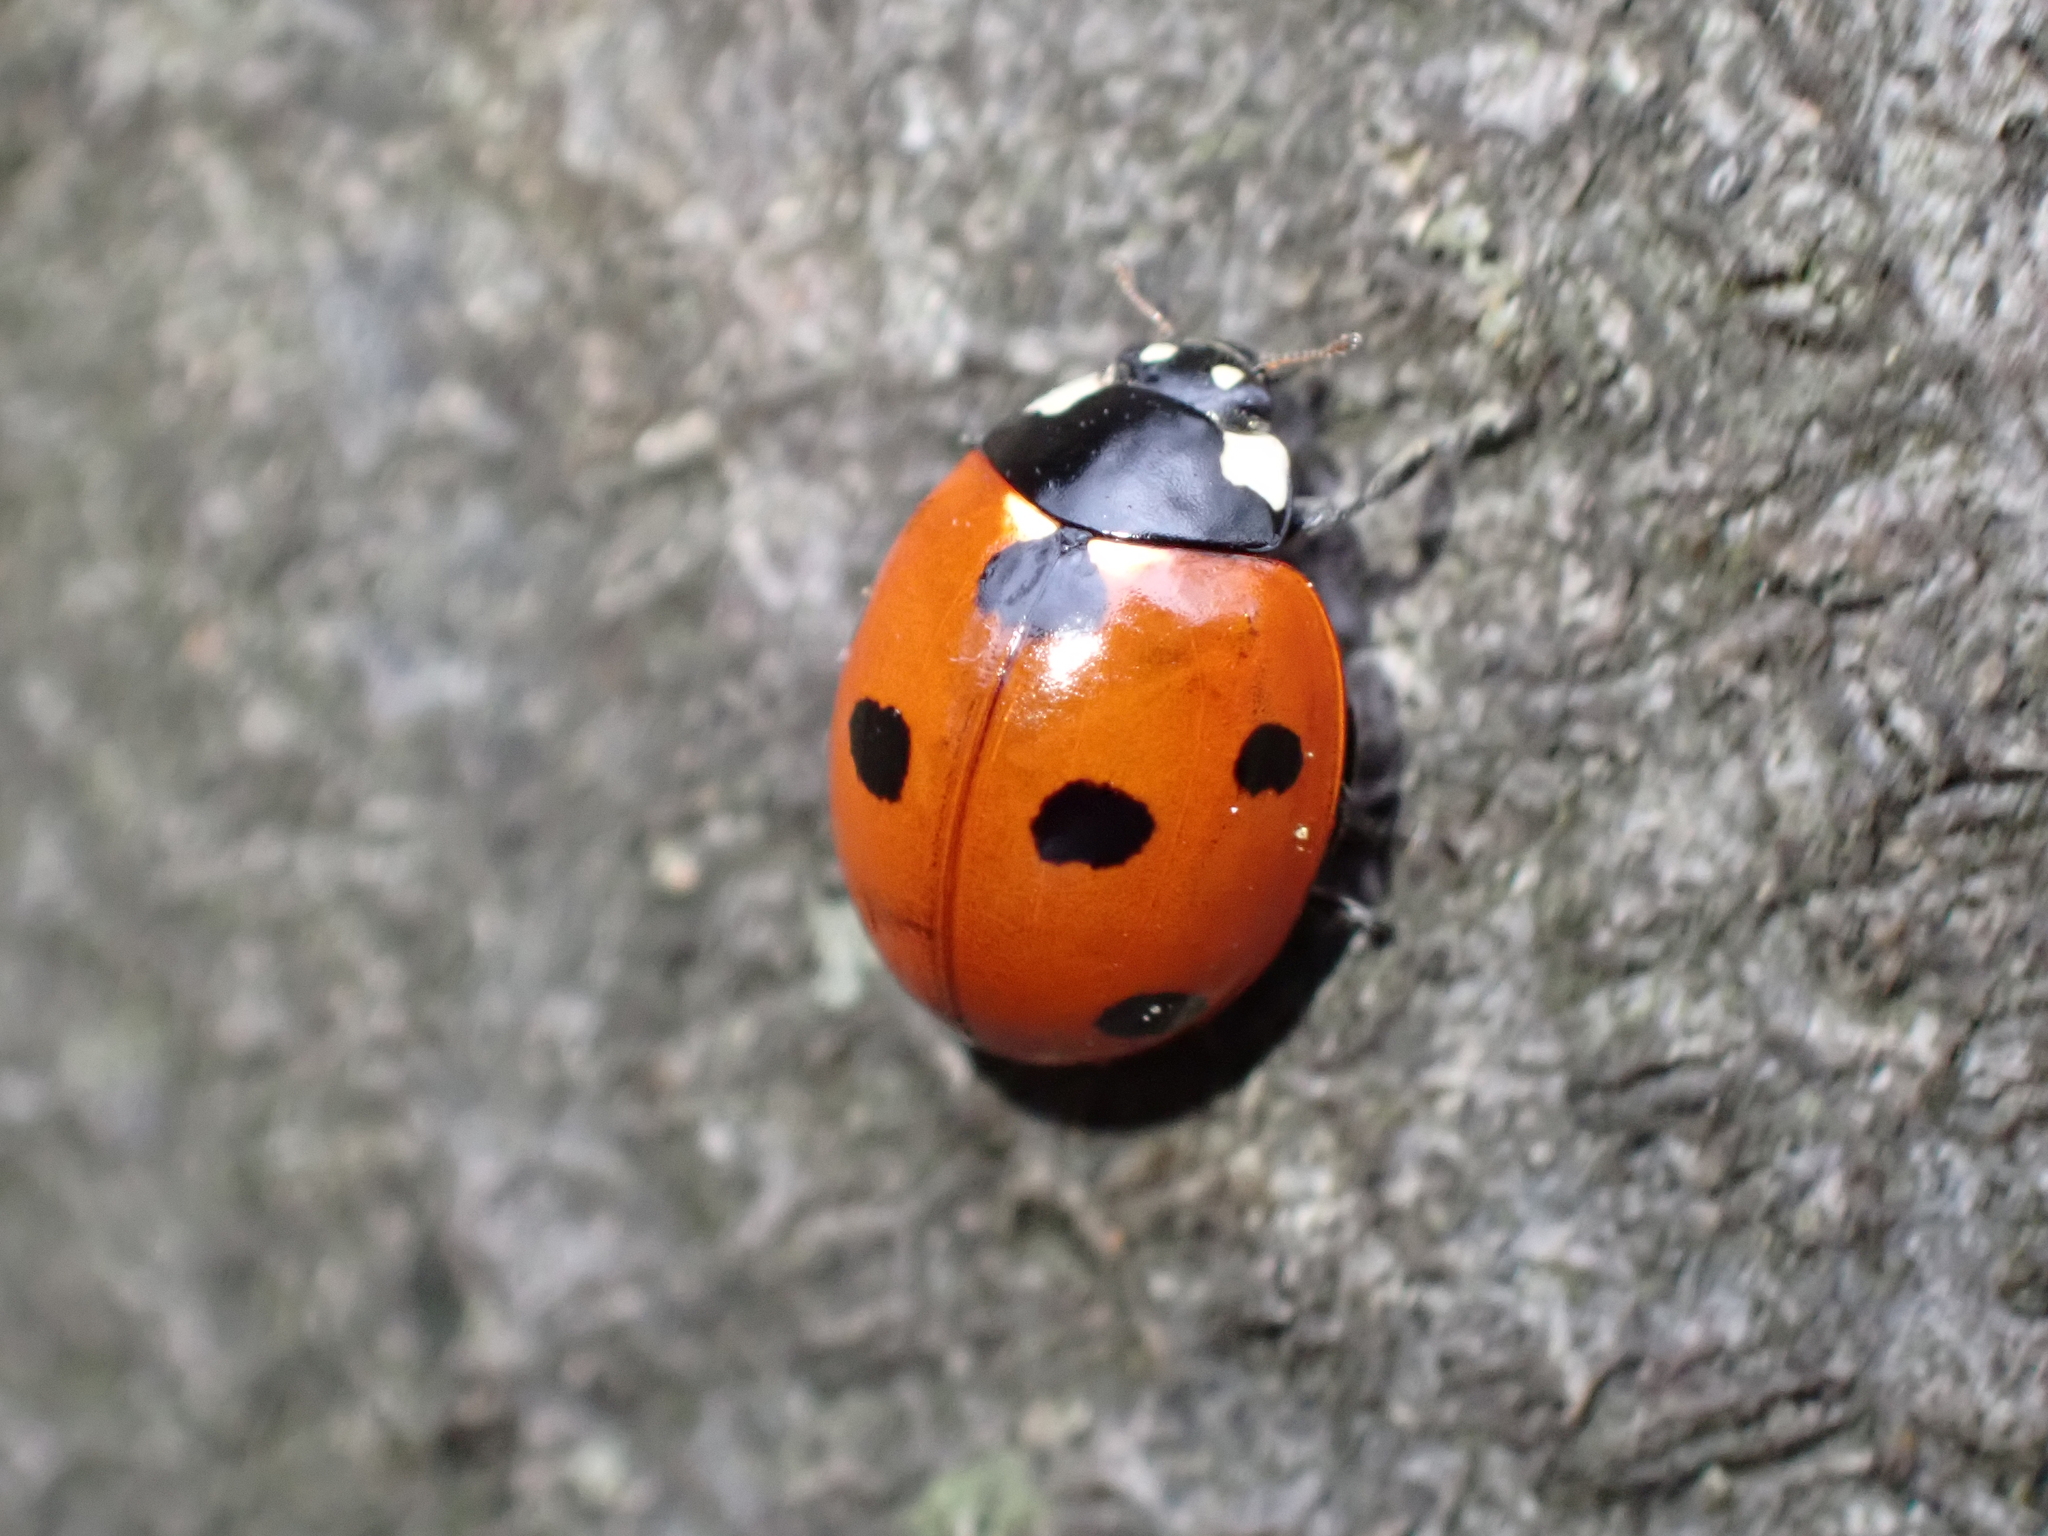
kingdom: Animalia
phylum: Arthropoda
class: Insecta
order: Coleoptera
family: Coccinellidae
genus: Coccinella
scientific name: Coccinella septempunctata
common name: Sevenspotted lady beetle
